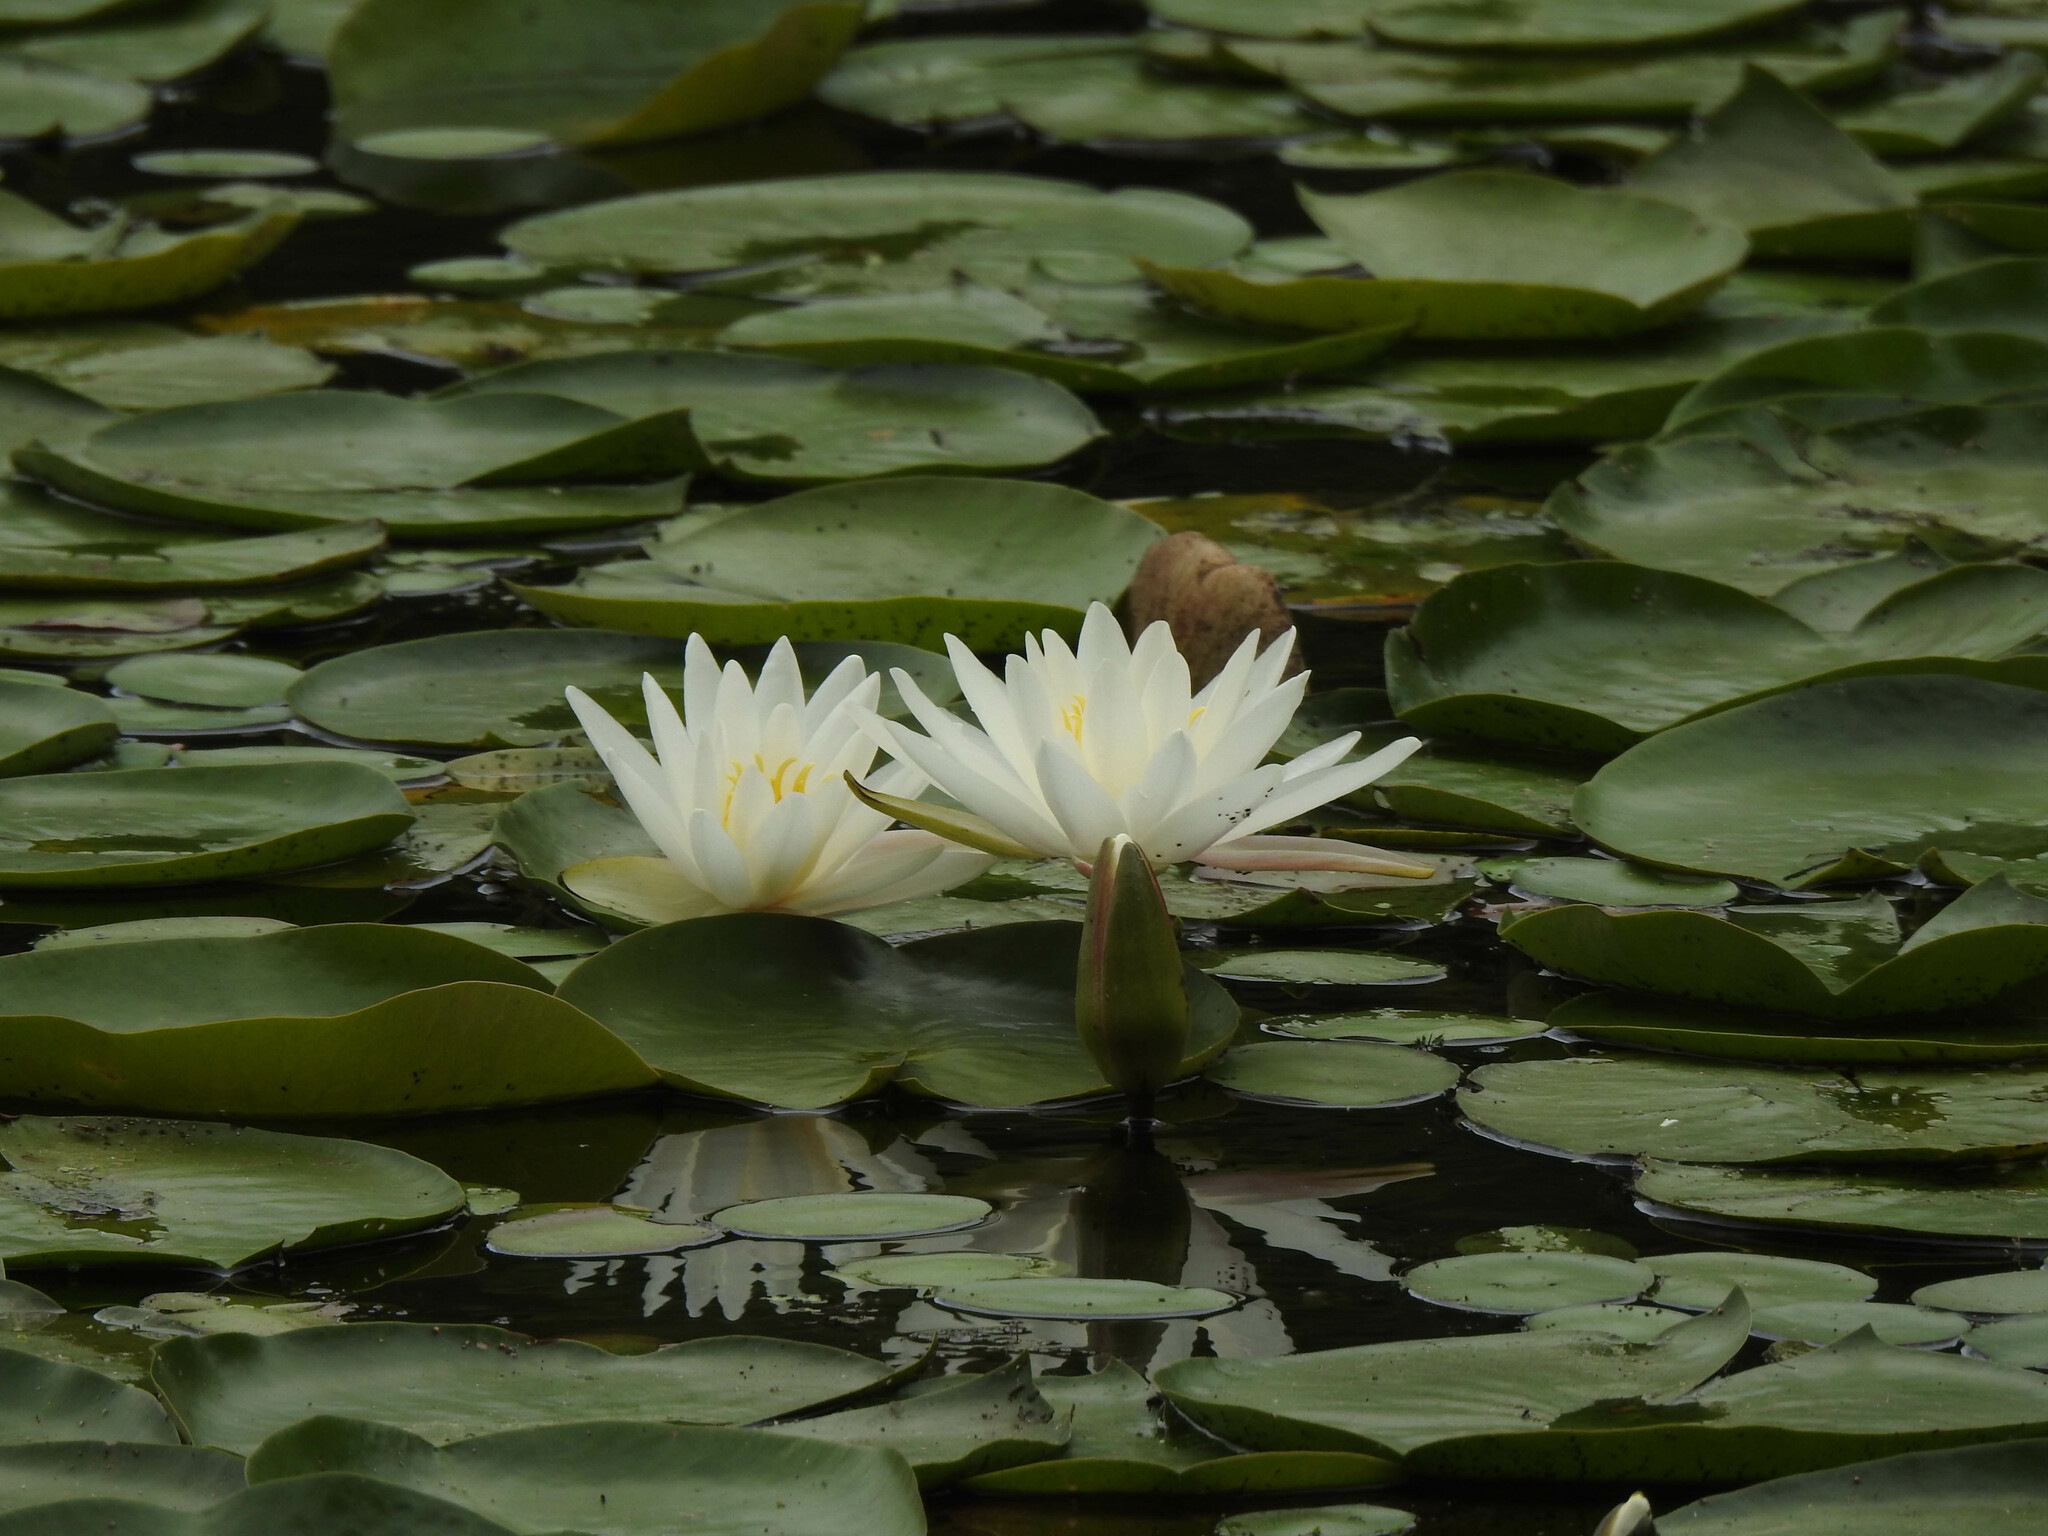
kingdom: Plantae
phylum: Tracheophyta
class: Magnoliopsida
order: Nymphaeales
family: Nymphaeaceae
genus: Nymphaea
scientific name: Nymphaea odorata
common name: Fragrant water-lily
